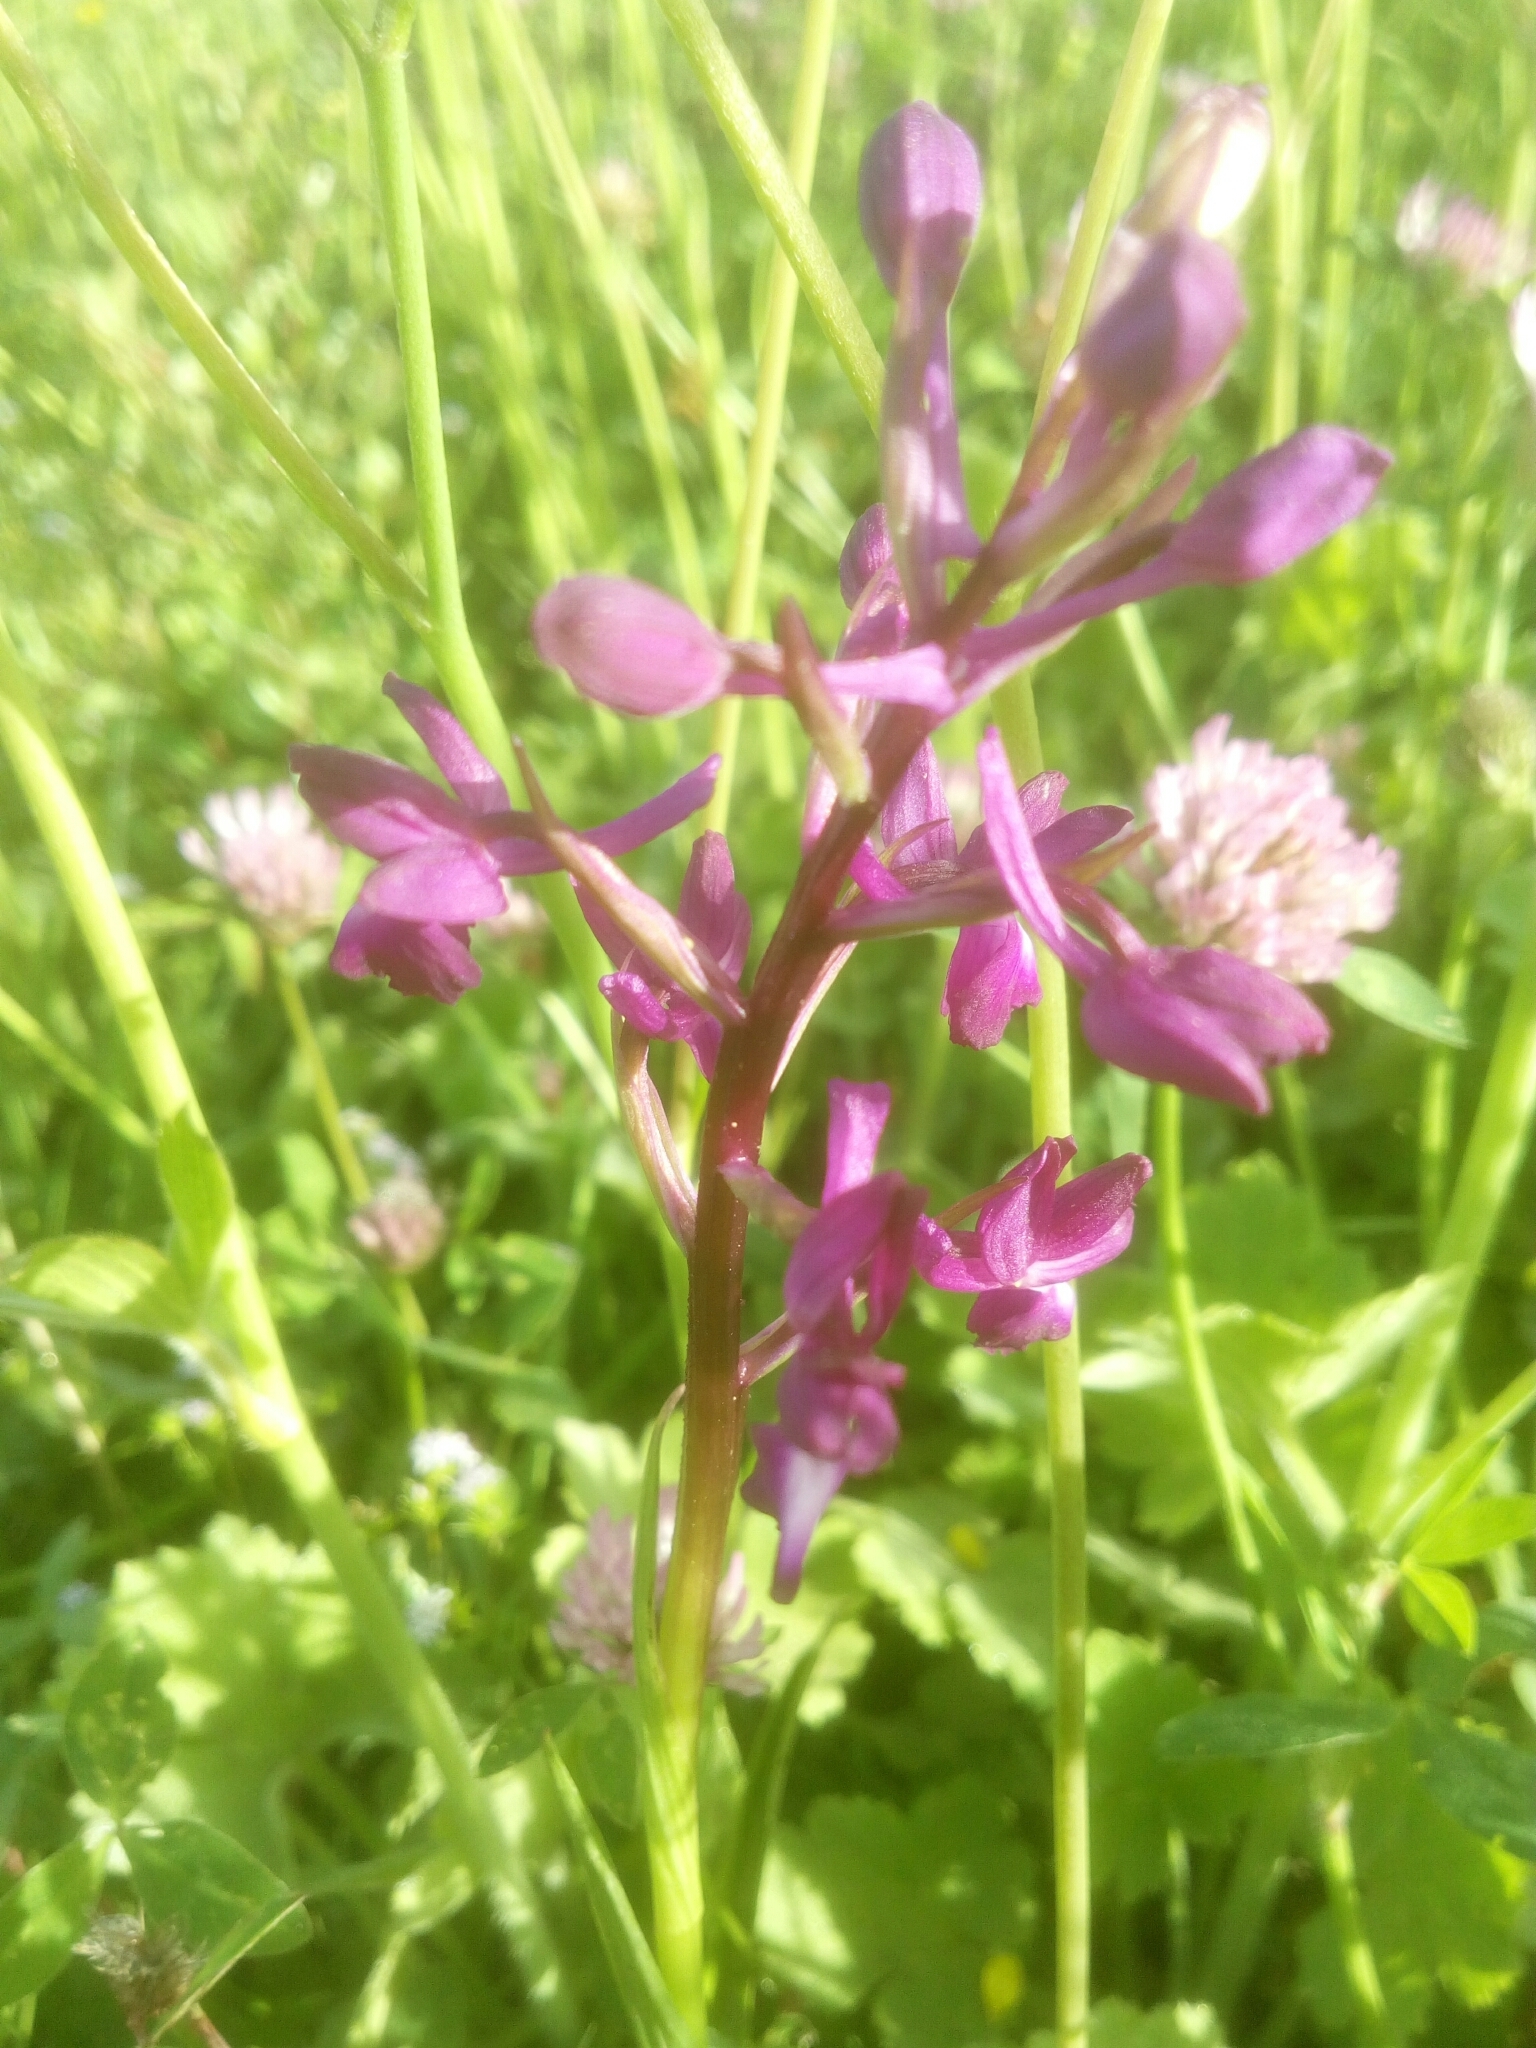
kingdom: Plantae
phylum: Tracheophyta
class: Liliopsida
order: Asparagales
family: Orchidaceae
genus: Anacamptis
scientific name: Anacamptis laxiflora
